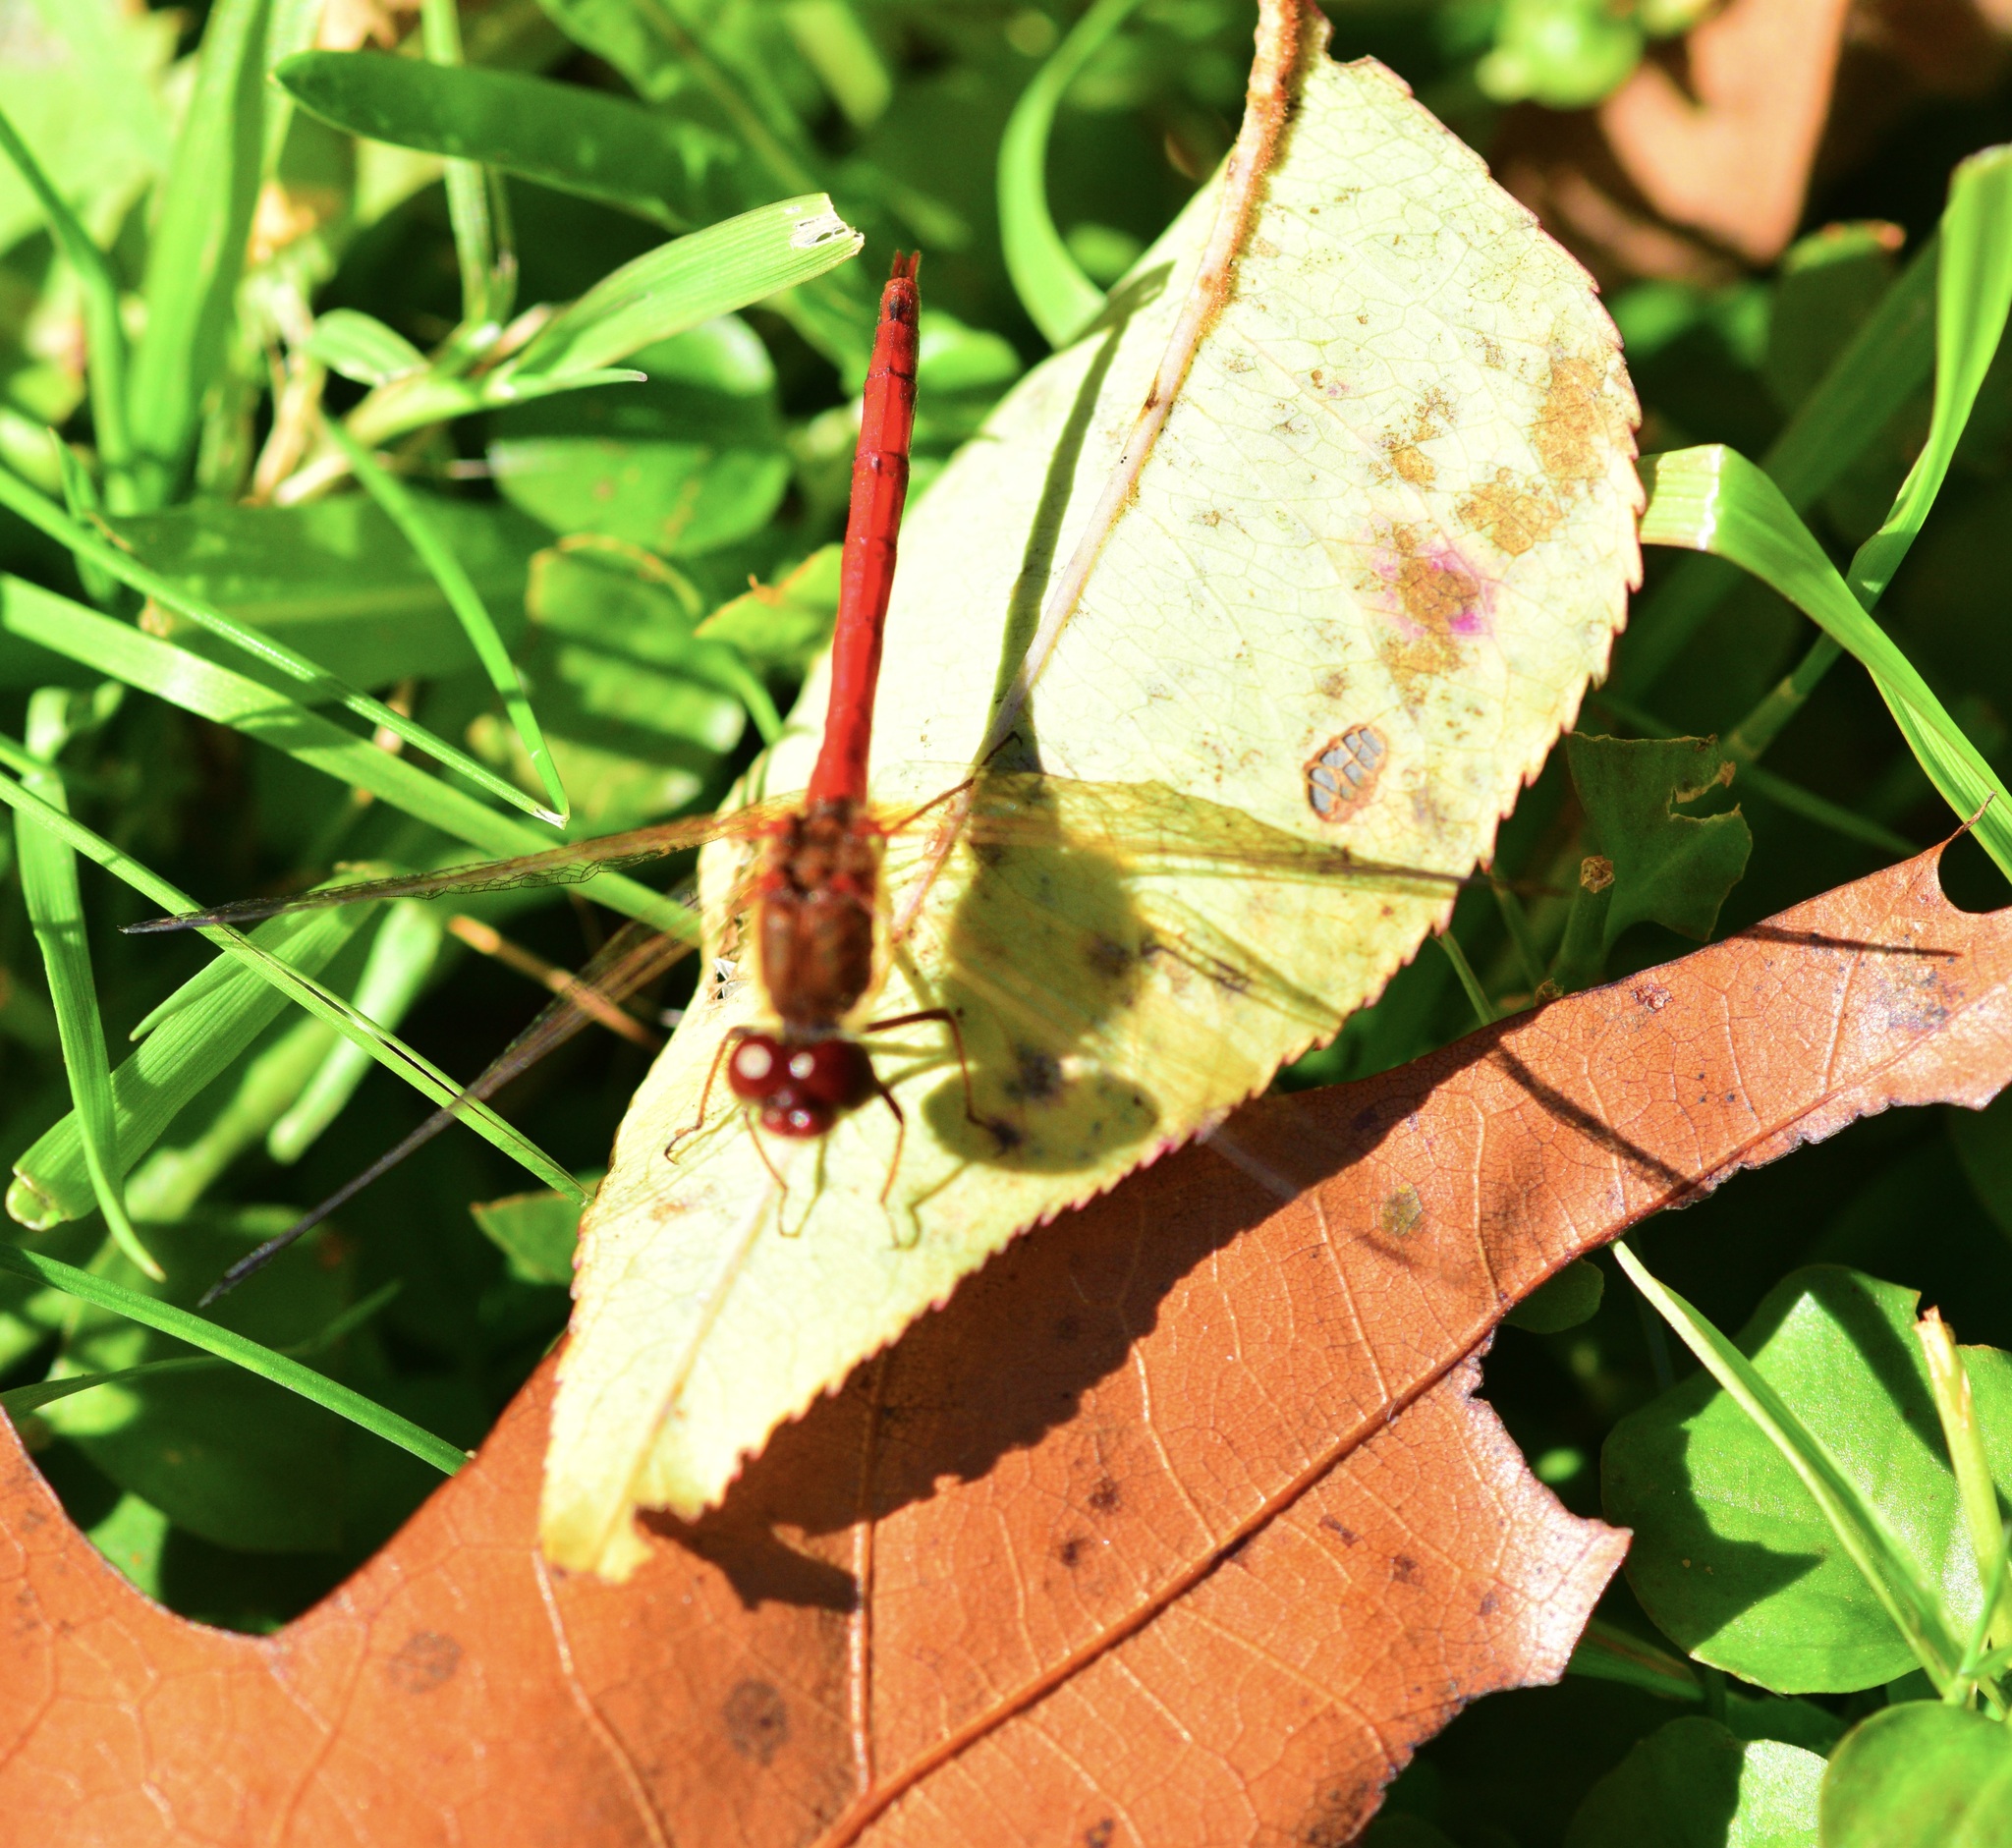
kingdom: Animalia
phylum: Arthropoda
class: Insecta
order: Odonata
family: Libellulidae
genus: Sympetrum
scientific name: Sympetrum vicinum
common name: Autumn meadowhawk
